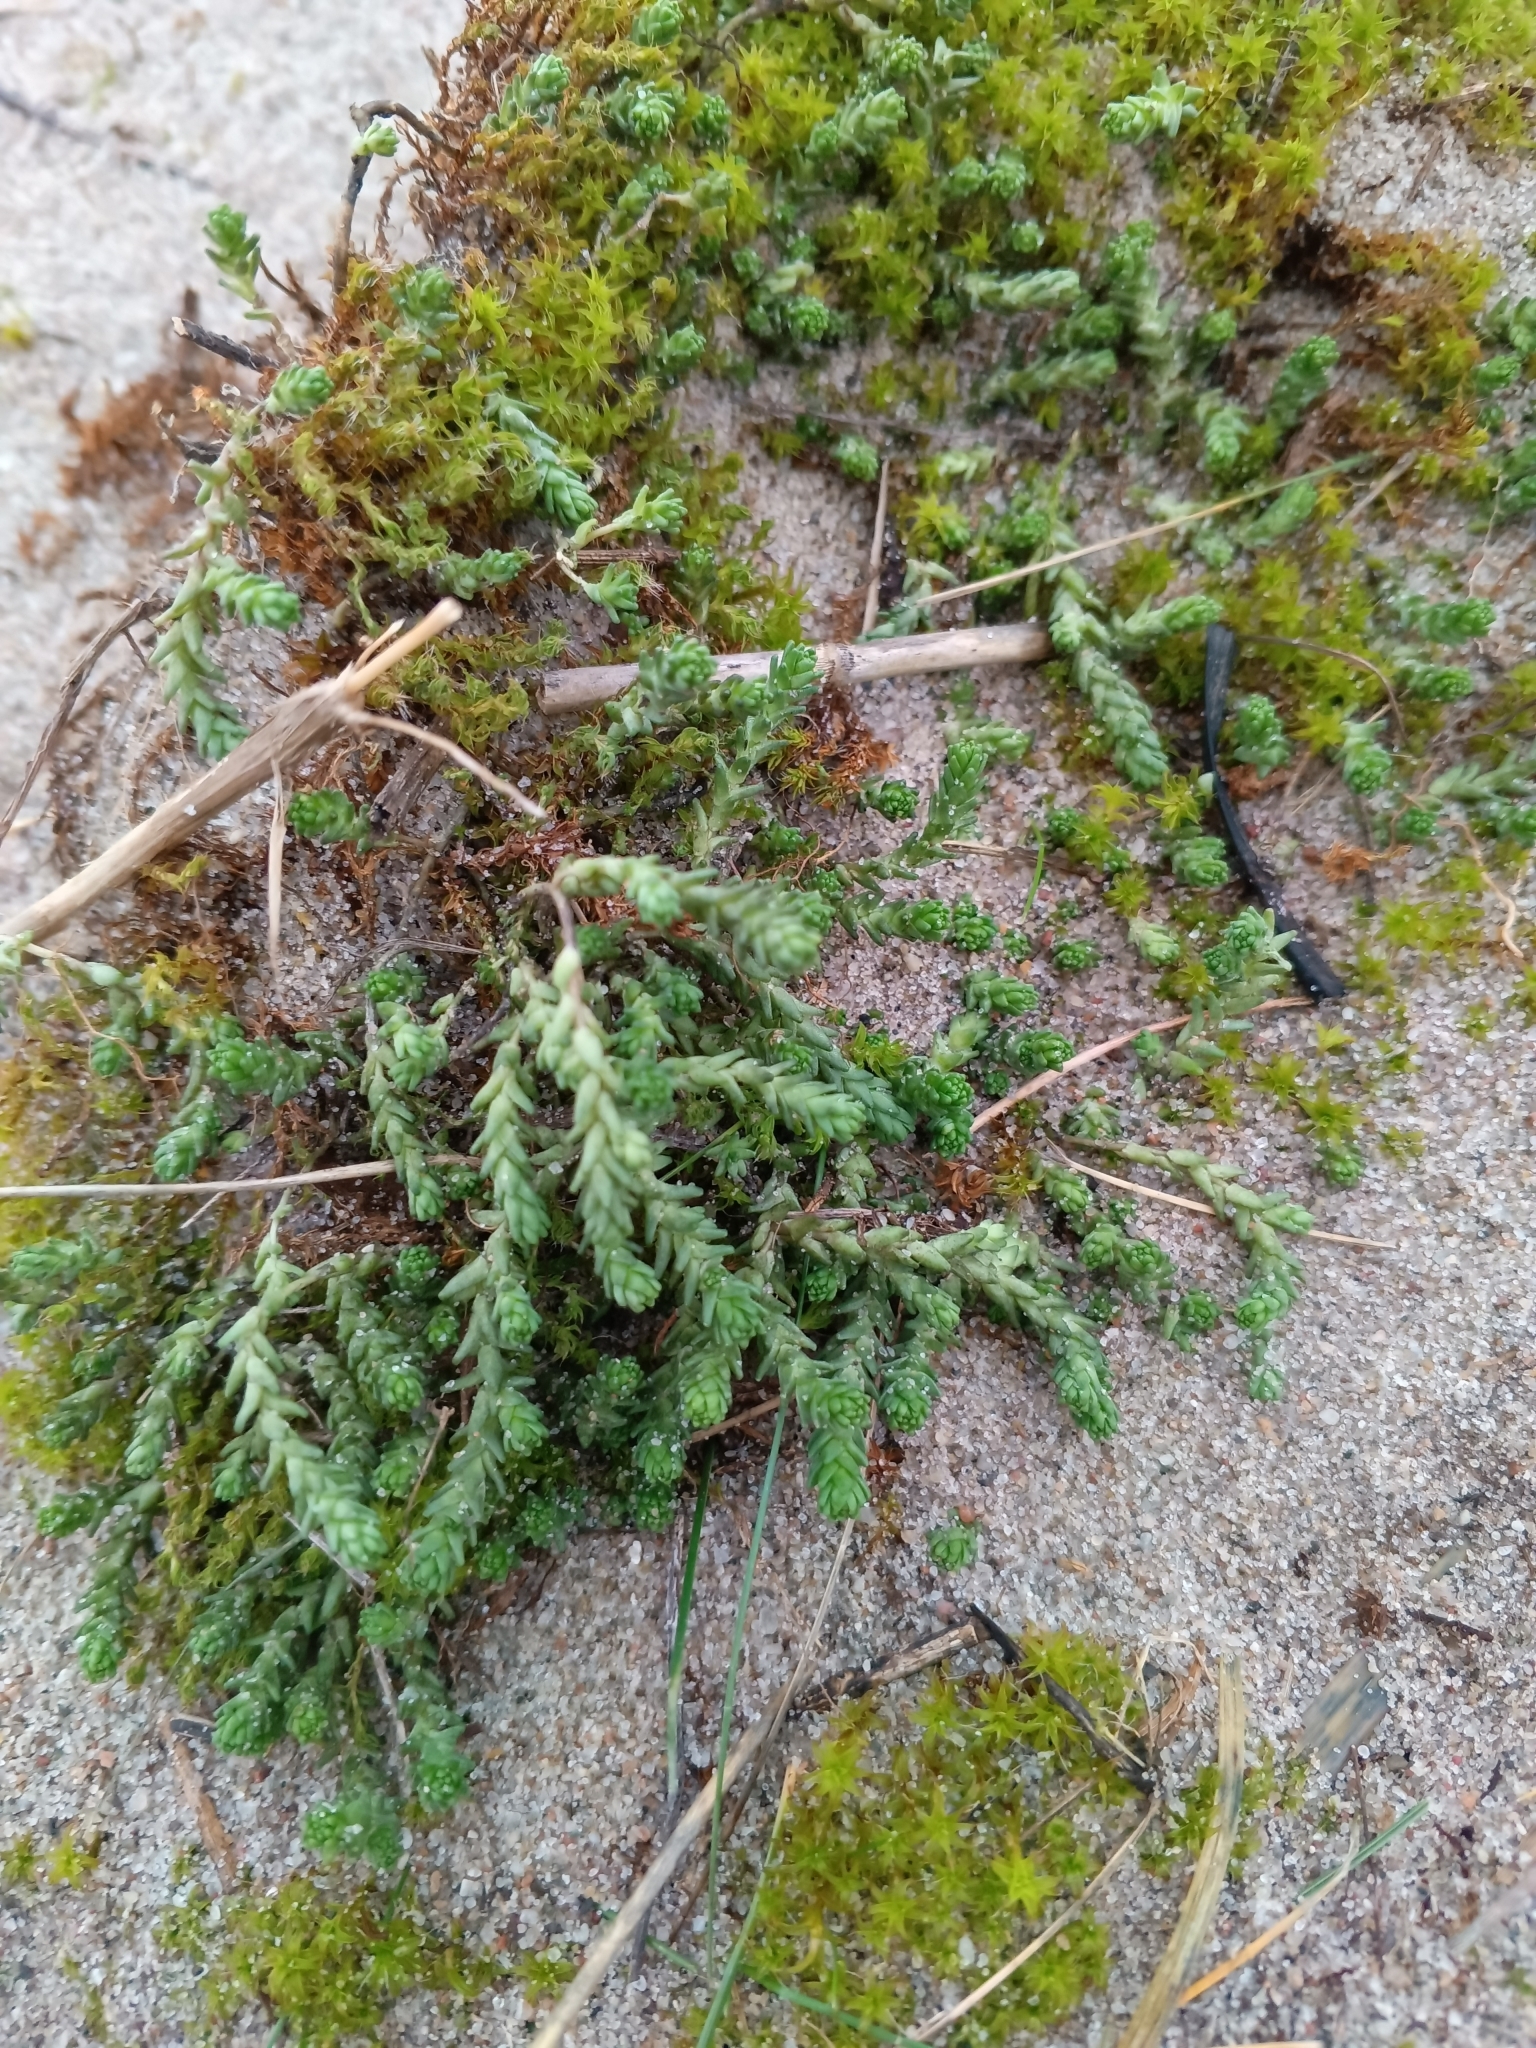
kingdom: Plantae
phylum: Tracheophyta
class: Magnoliopsida
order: Saxifragales
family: Crassulaceae
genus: Sedum
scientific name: Sedum acre
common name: Biting stonecrop
